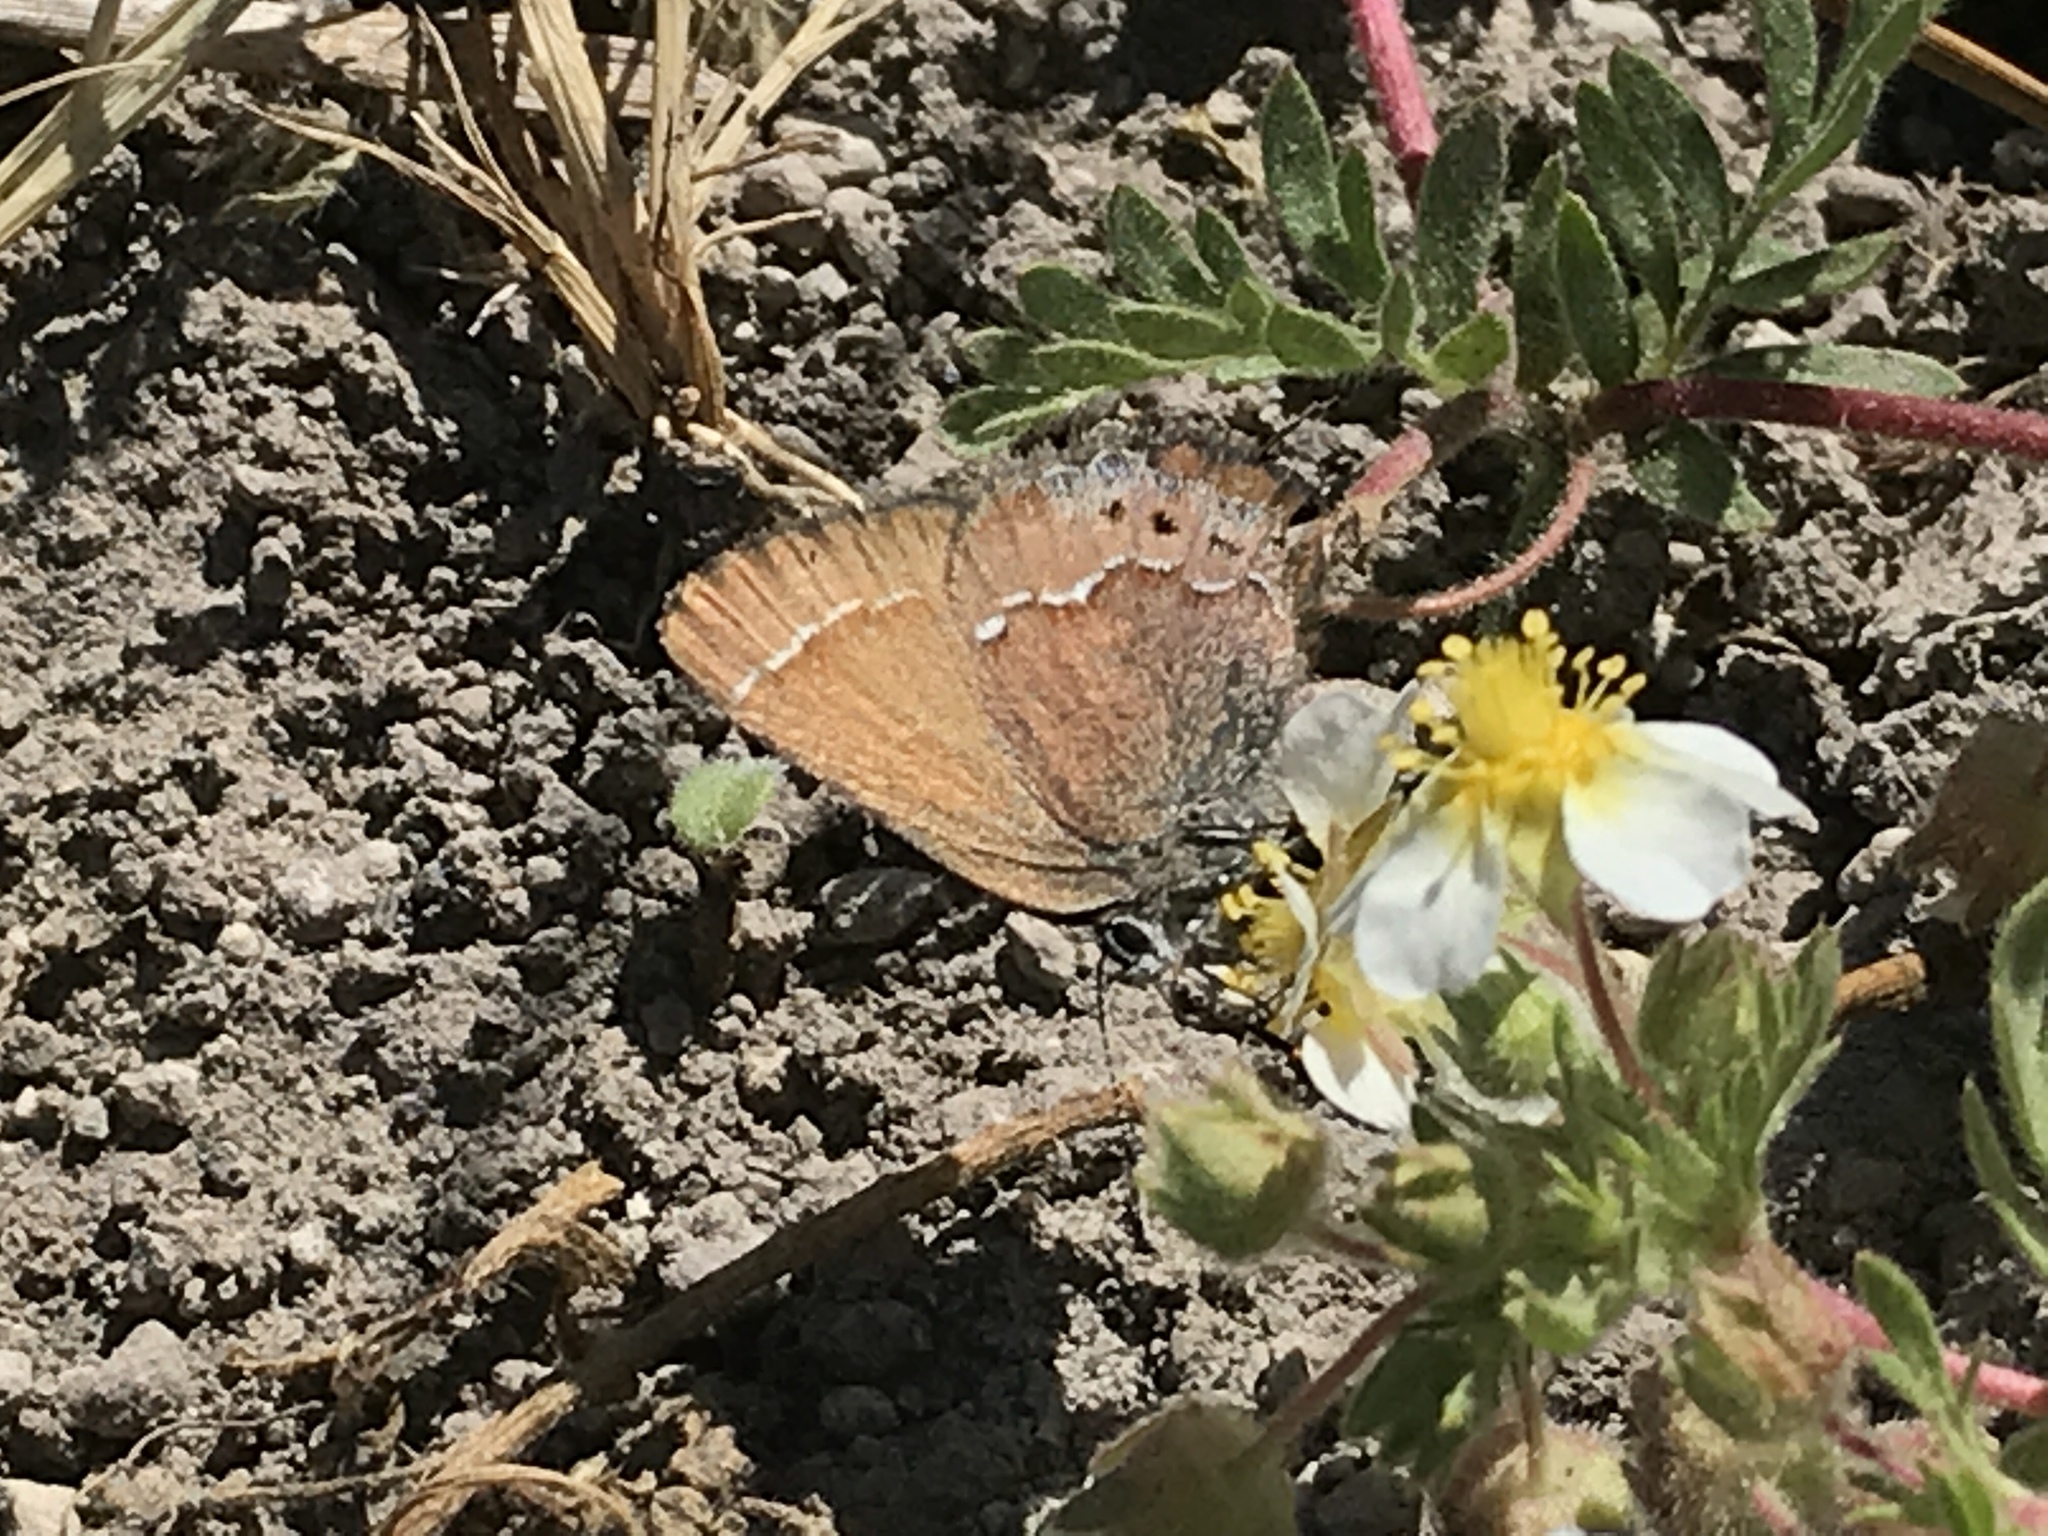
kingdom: Animalia
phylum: Arthropoda
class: Insecta
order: Lepidoptera
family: Lycaenidae
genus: Mitoura
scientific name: Mitoura gryneus
